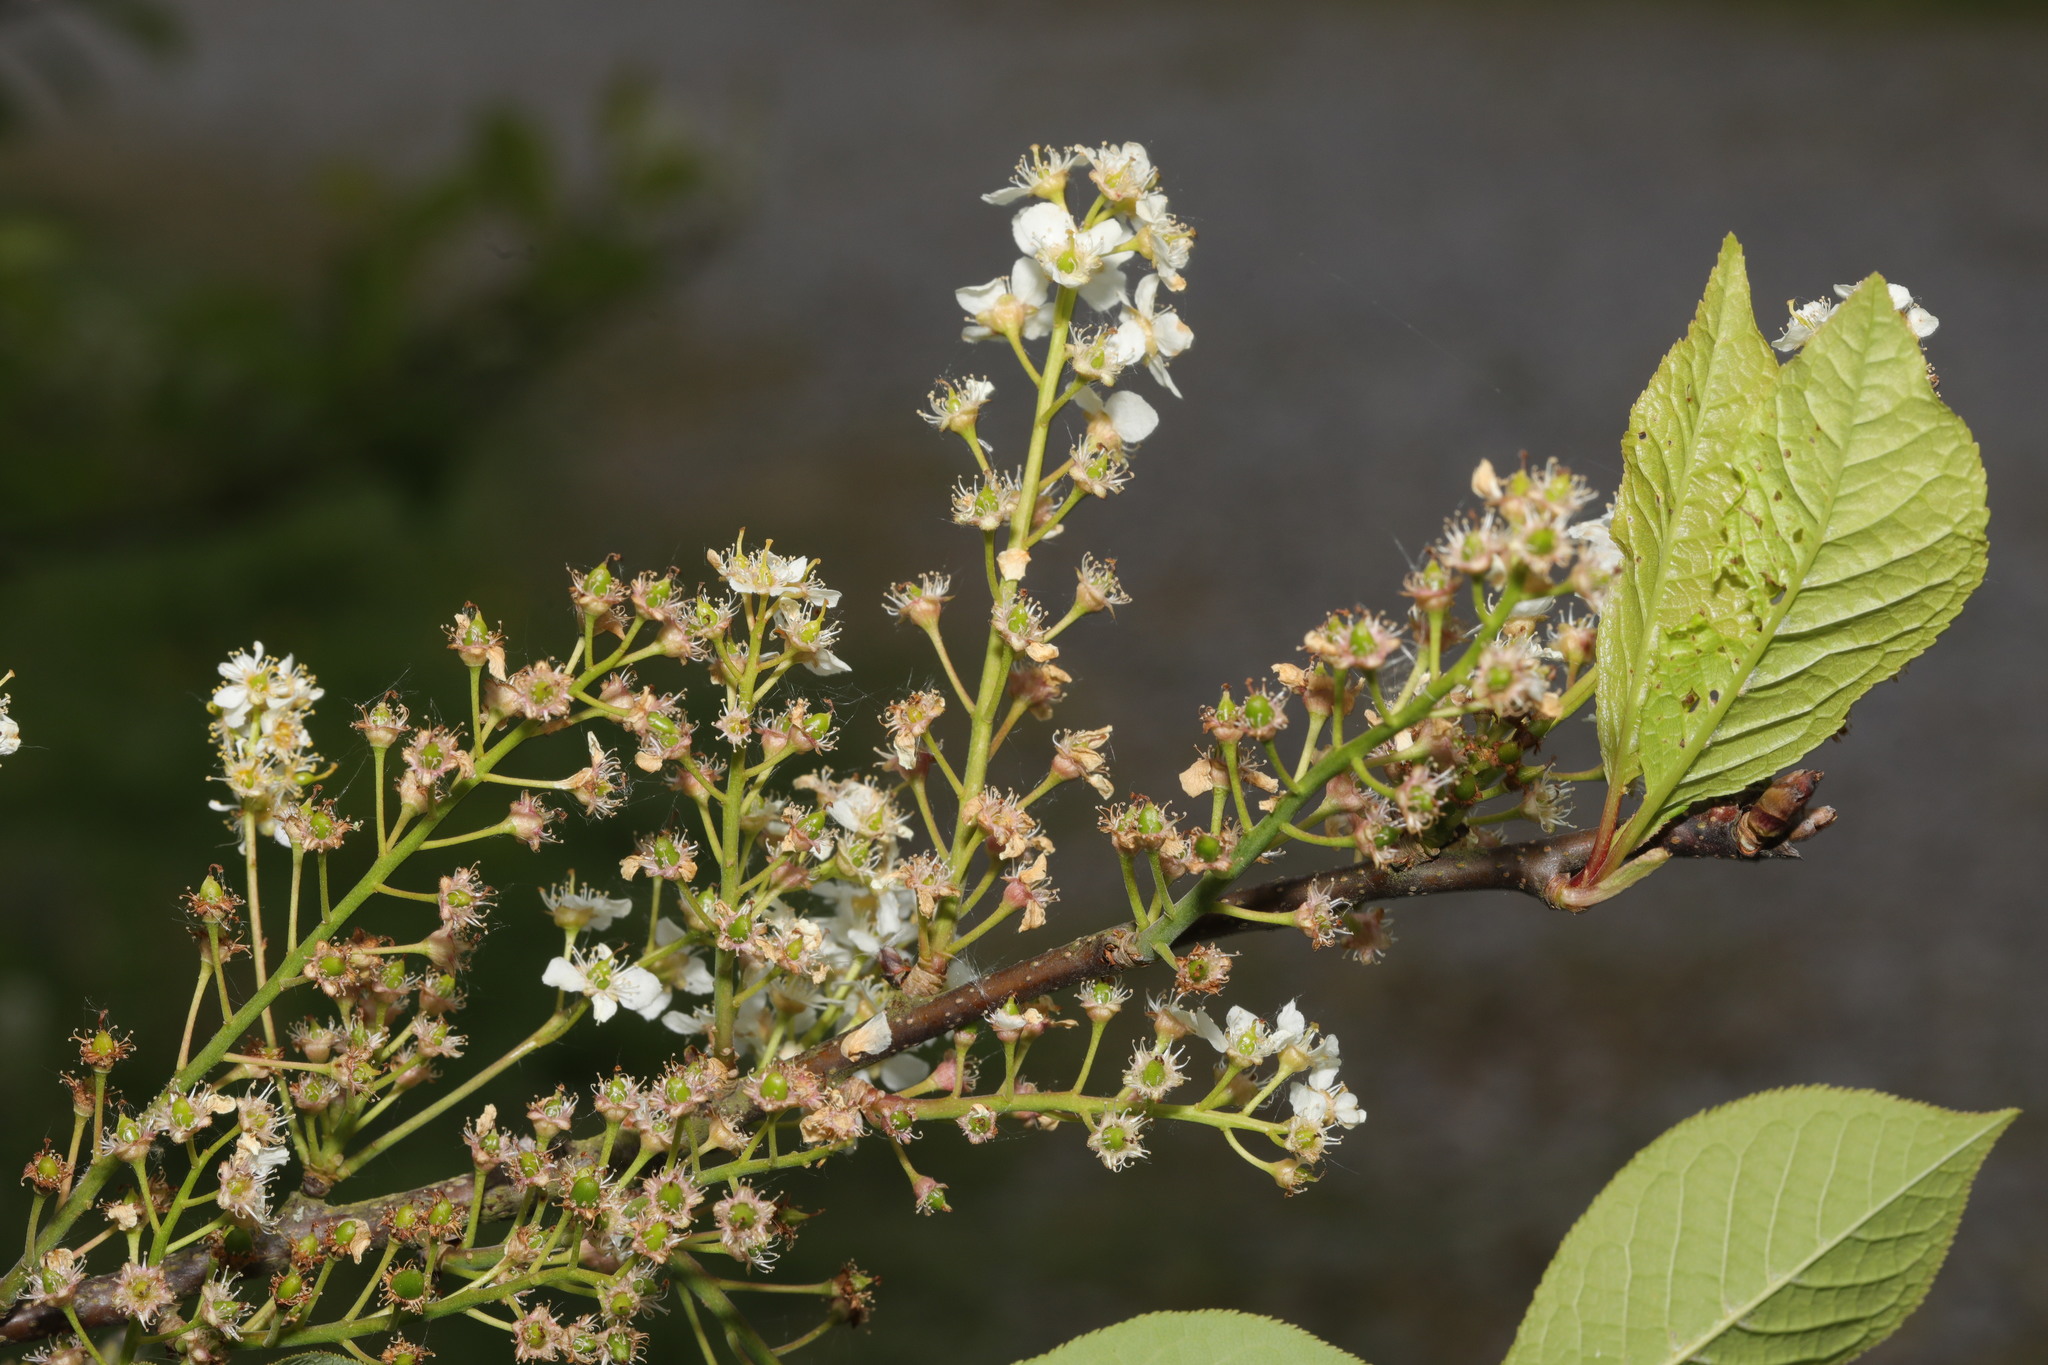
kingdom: Plantae
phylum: Tracheophyta
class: Magnoliopsida
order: Rosales
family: Rosaceae
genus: Prunus
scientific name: Prunus padus
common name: Bird cherry
